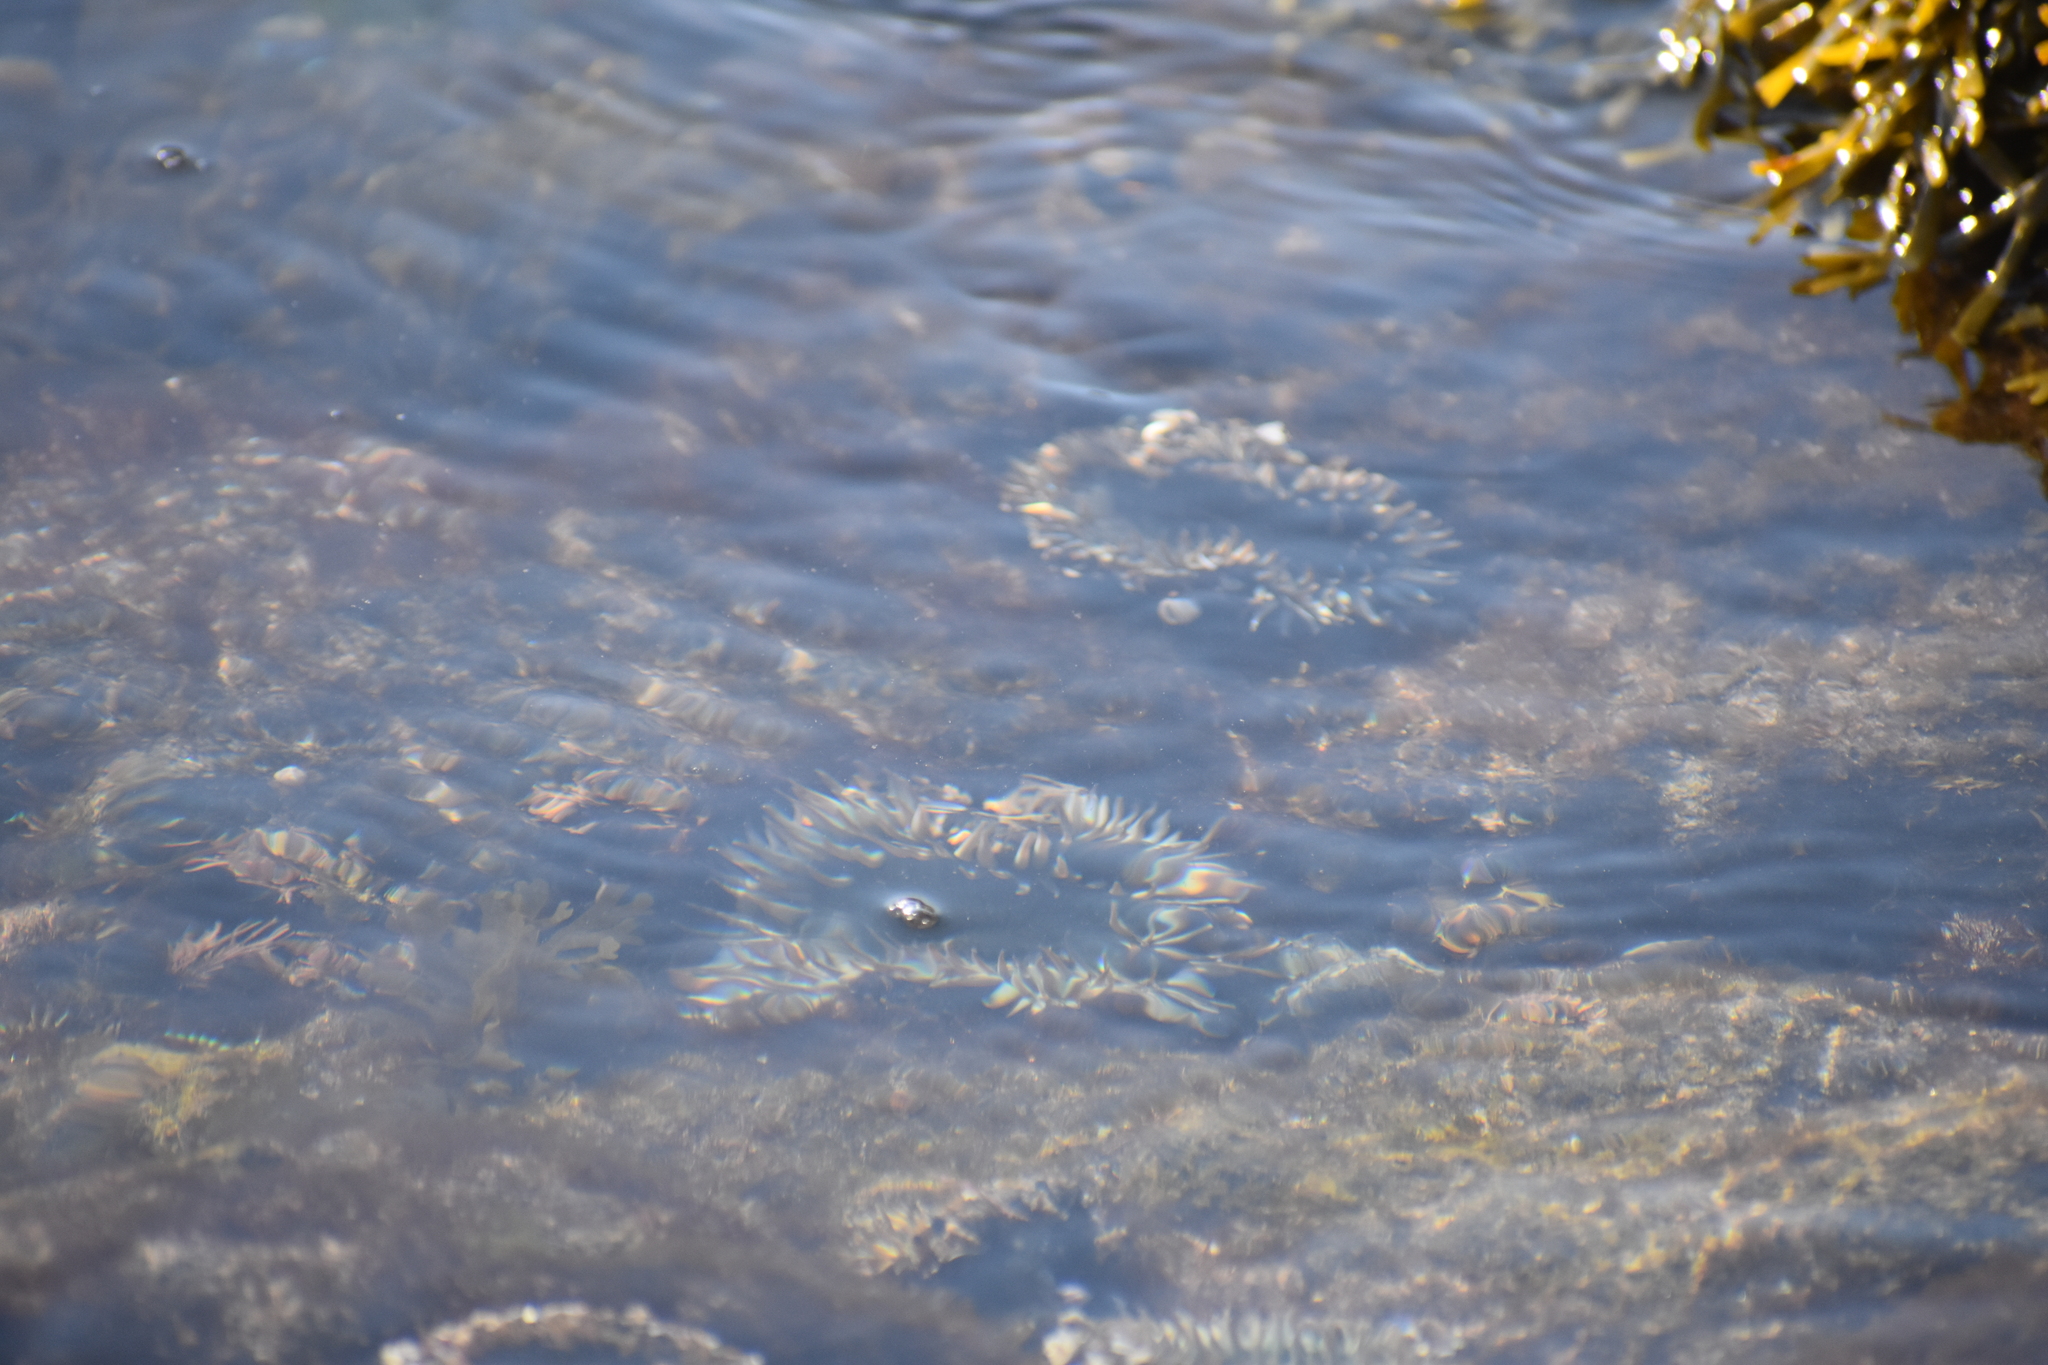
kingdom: Animalia
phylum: Cnidaria
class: Anthozoa
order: Actiniaria
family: Actiniidae
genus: Anthopleura
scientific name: Anthopleura sola
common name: Sun anemone
